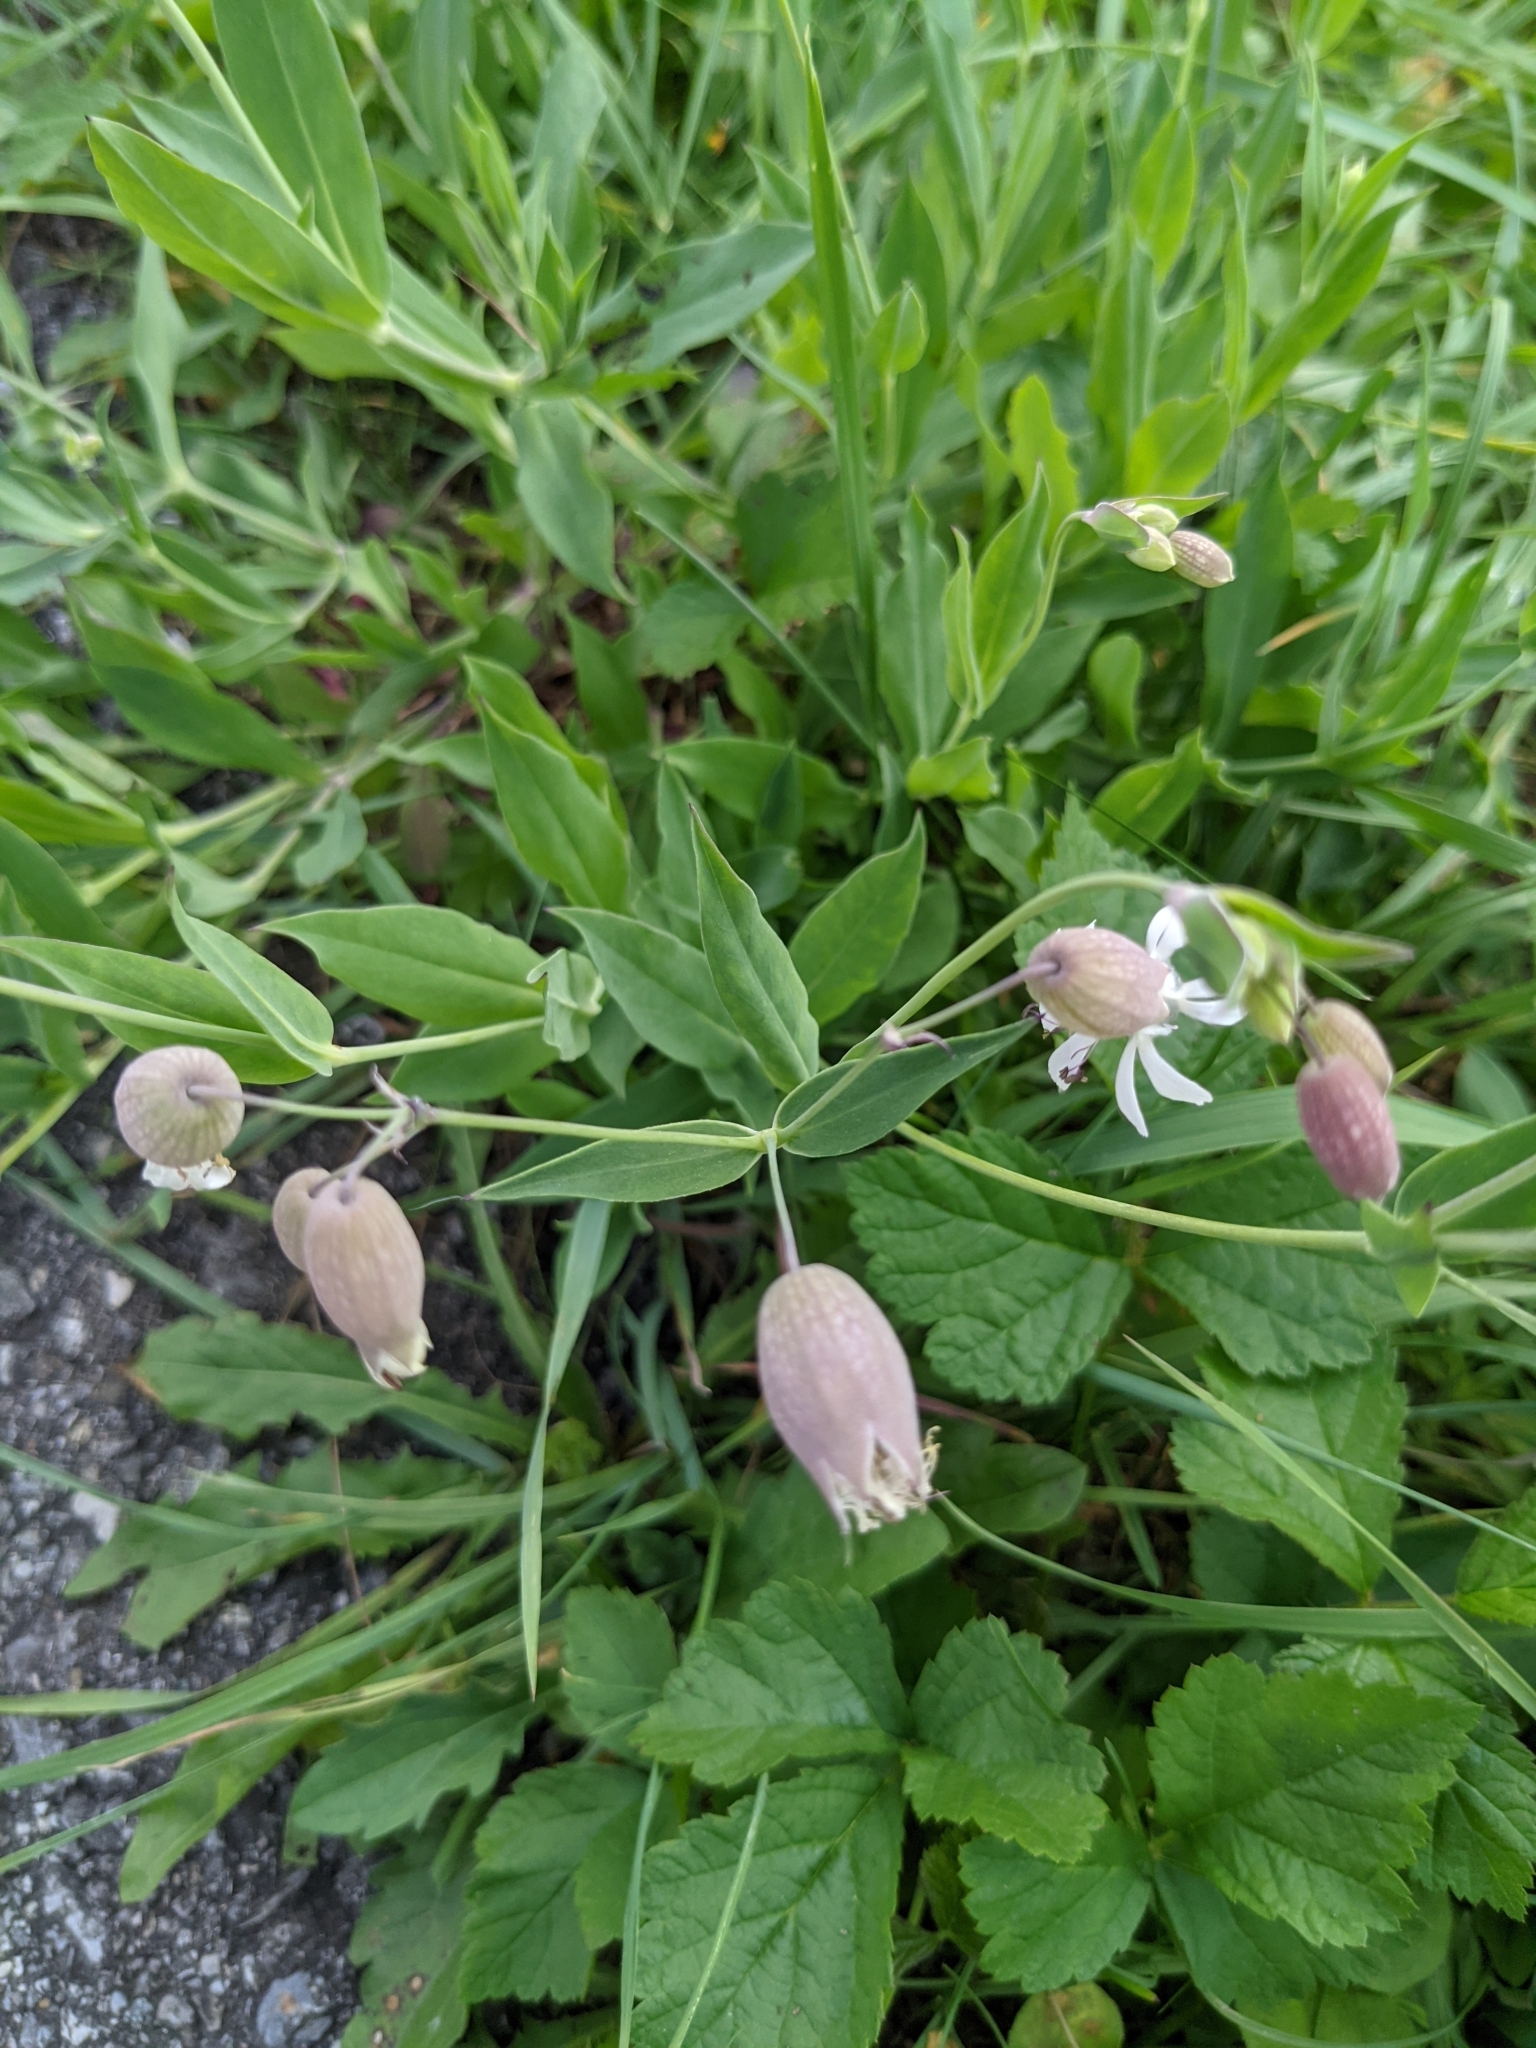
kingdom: Plantae
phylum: Tracheophyta
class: Magnoliopsida
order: Caryophyllales
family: Caryophyllaceae
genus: Silene
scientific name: Silene vulgaris
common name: Bladder campion
